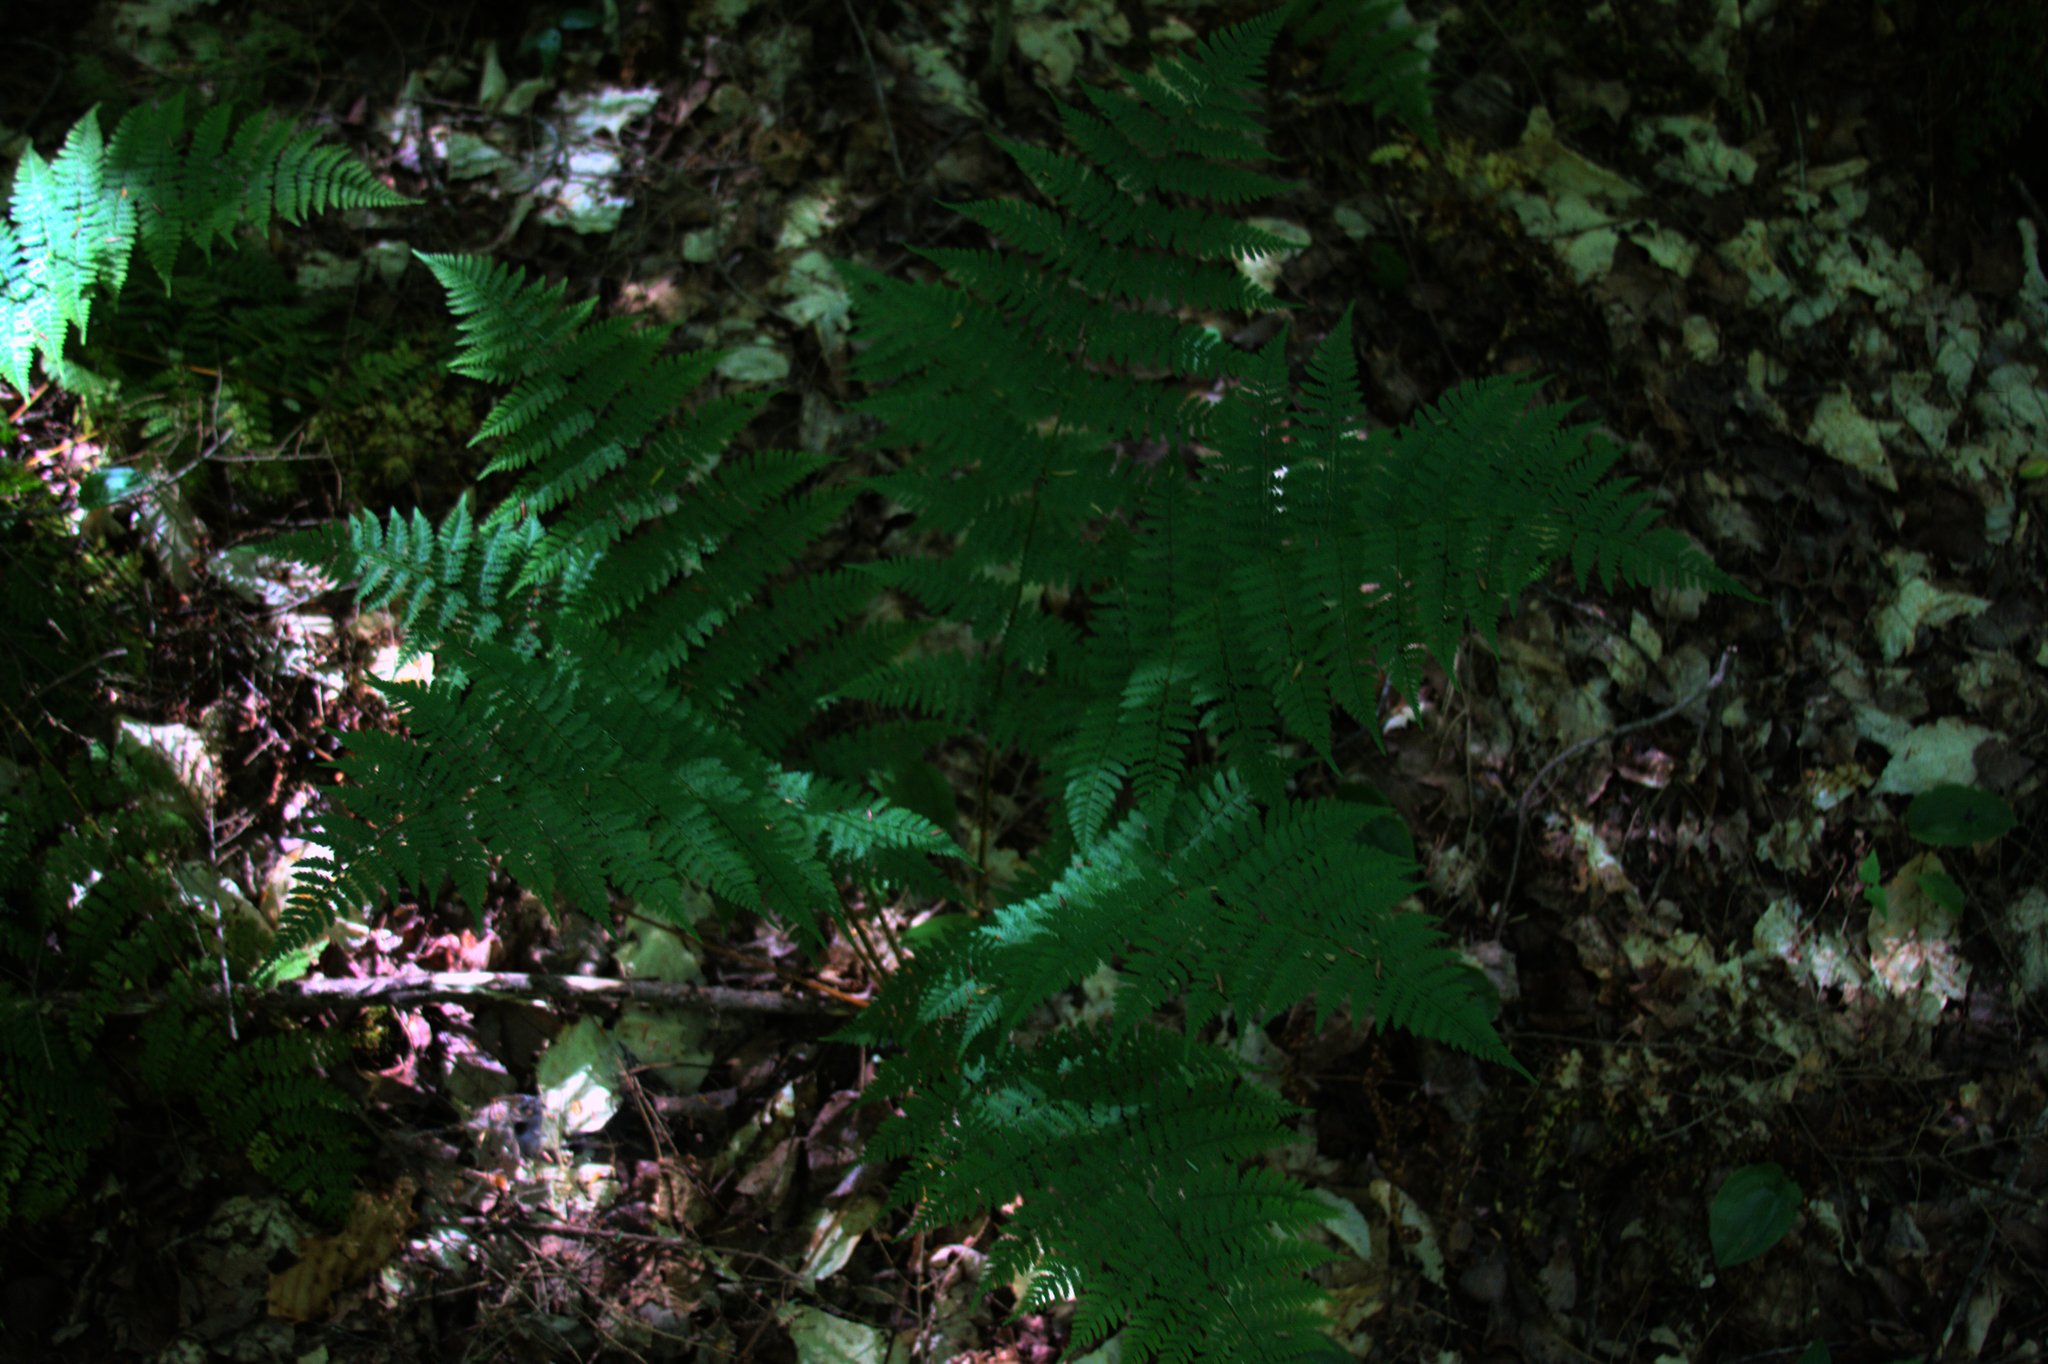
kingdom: Plantae
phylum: Tracheophyta
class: Polypodiopsida
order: Polypodiales
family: Dryopteridaceae
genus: Dryopteris
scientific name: Dryopteris intermedia
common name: Evergreen wood fern
